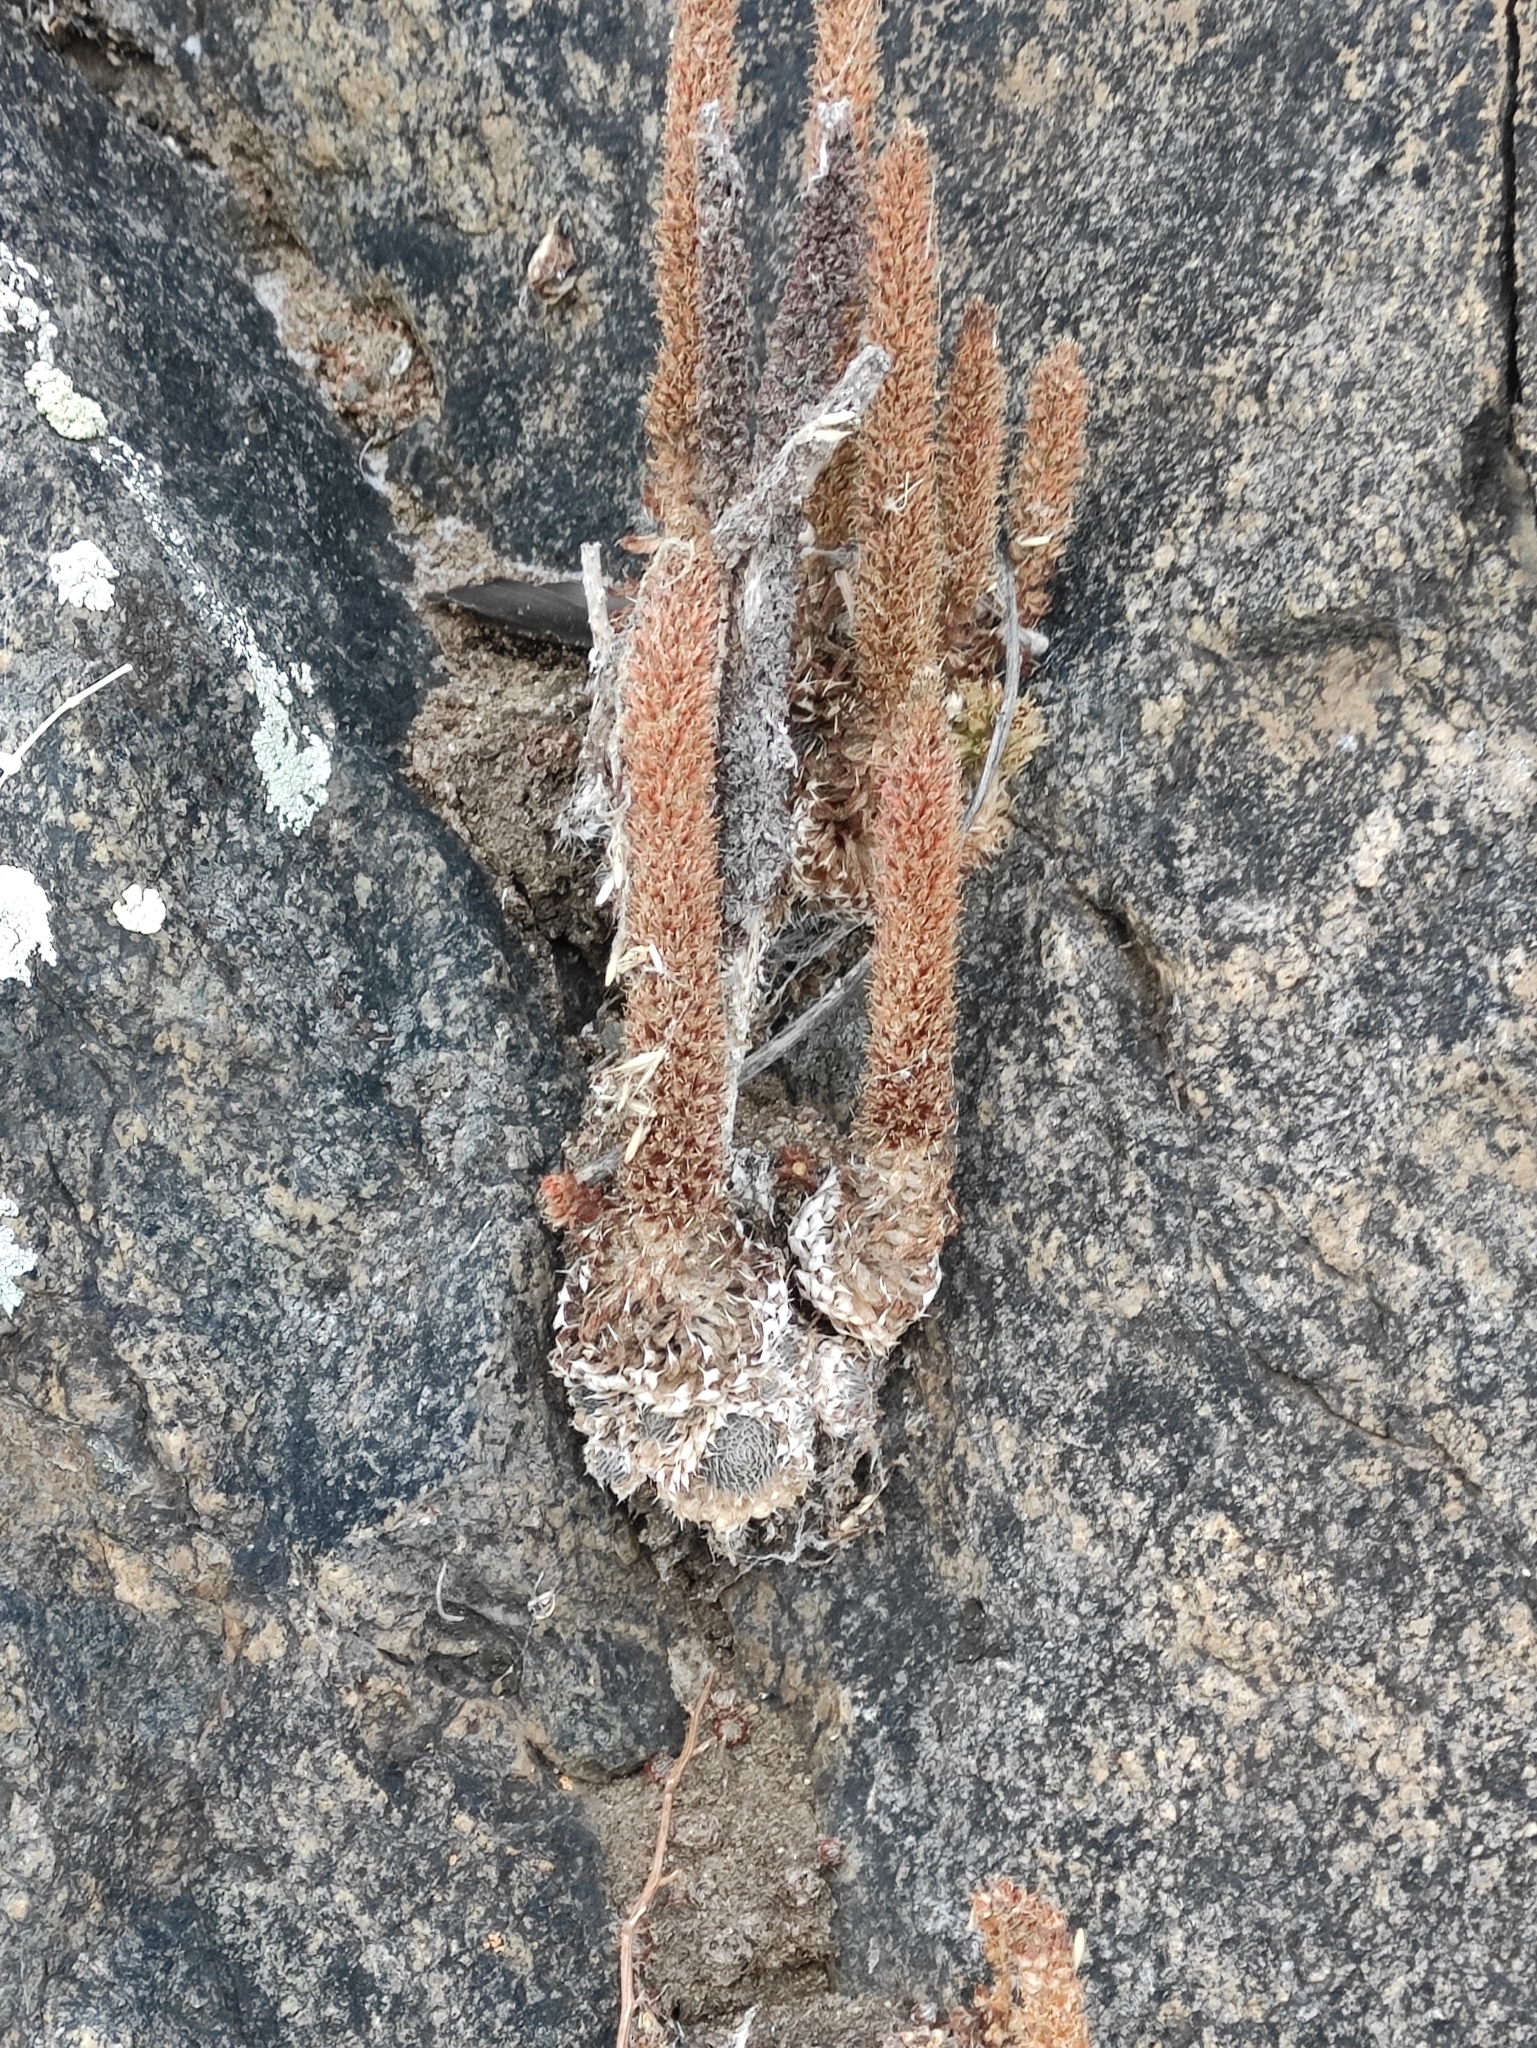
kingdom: Plantae
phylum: Tracheophyta
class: Magnoliopsida
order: Saxifragales
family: Crassulaceae
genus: Orostachys
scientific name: Orostachys spinosa
